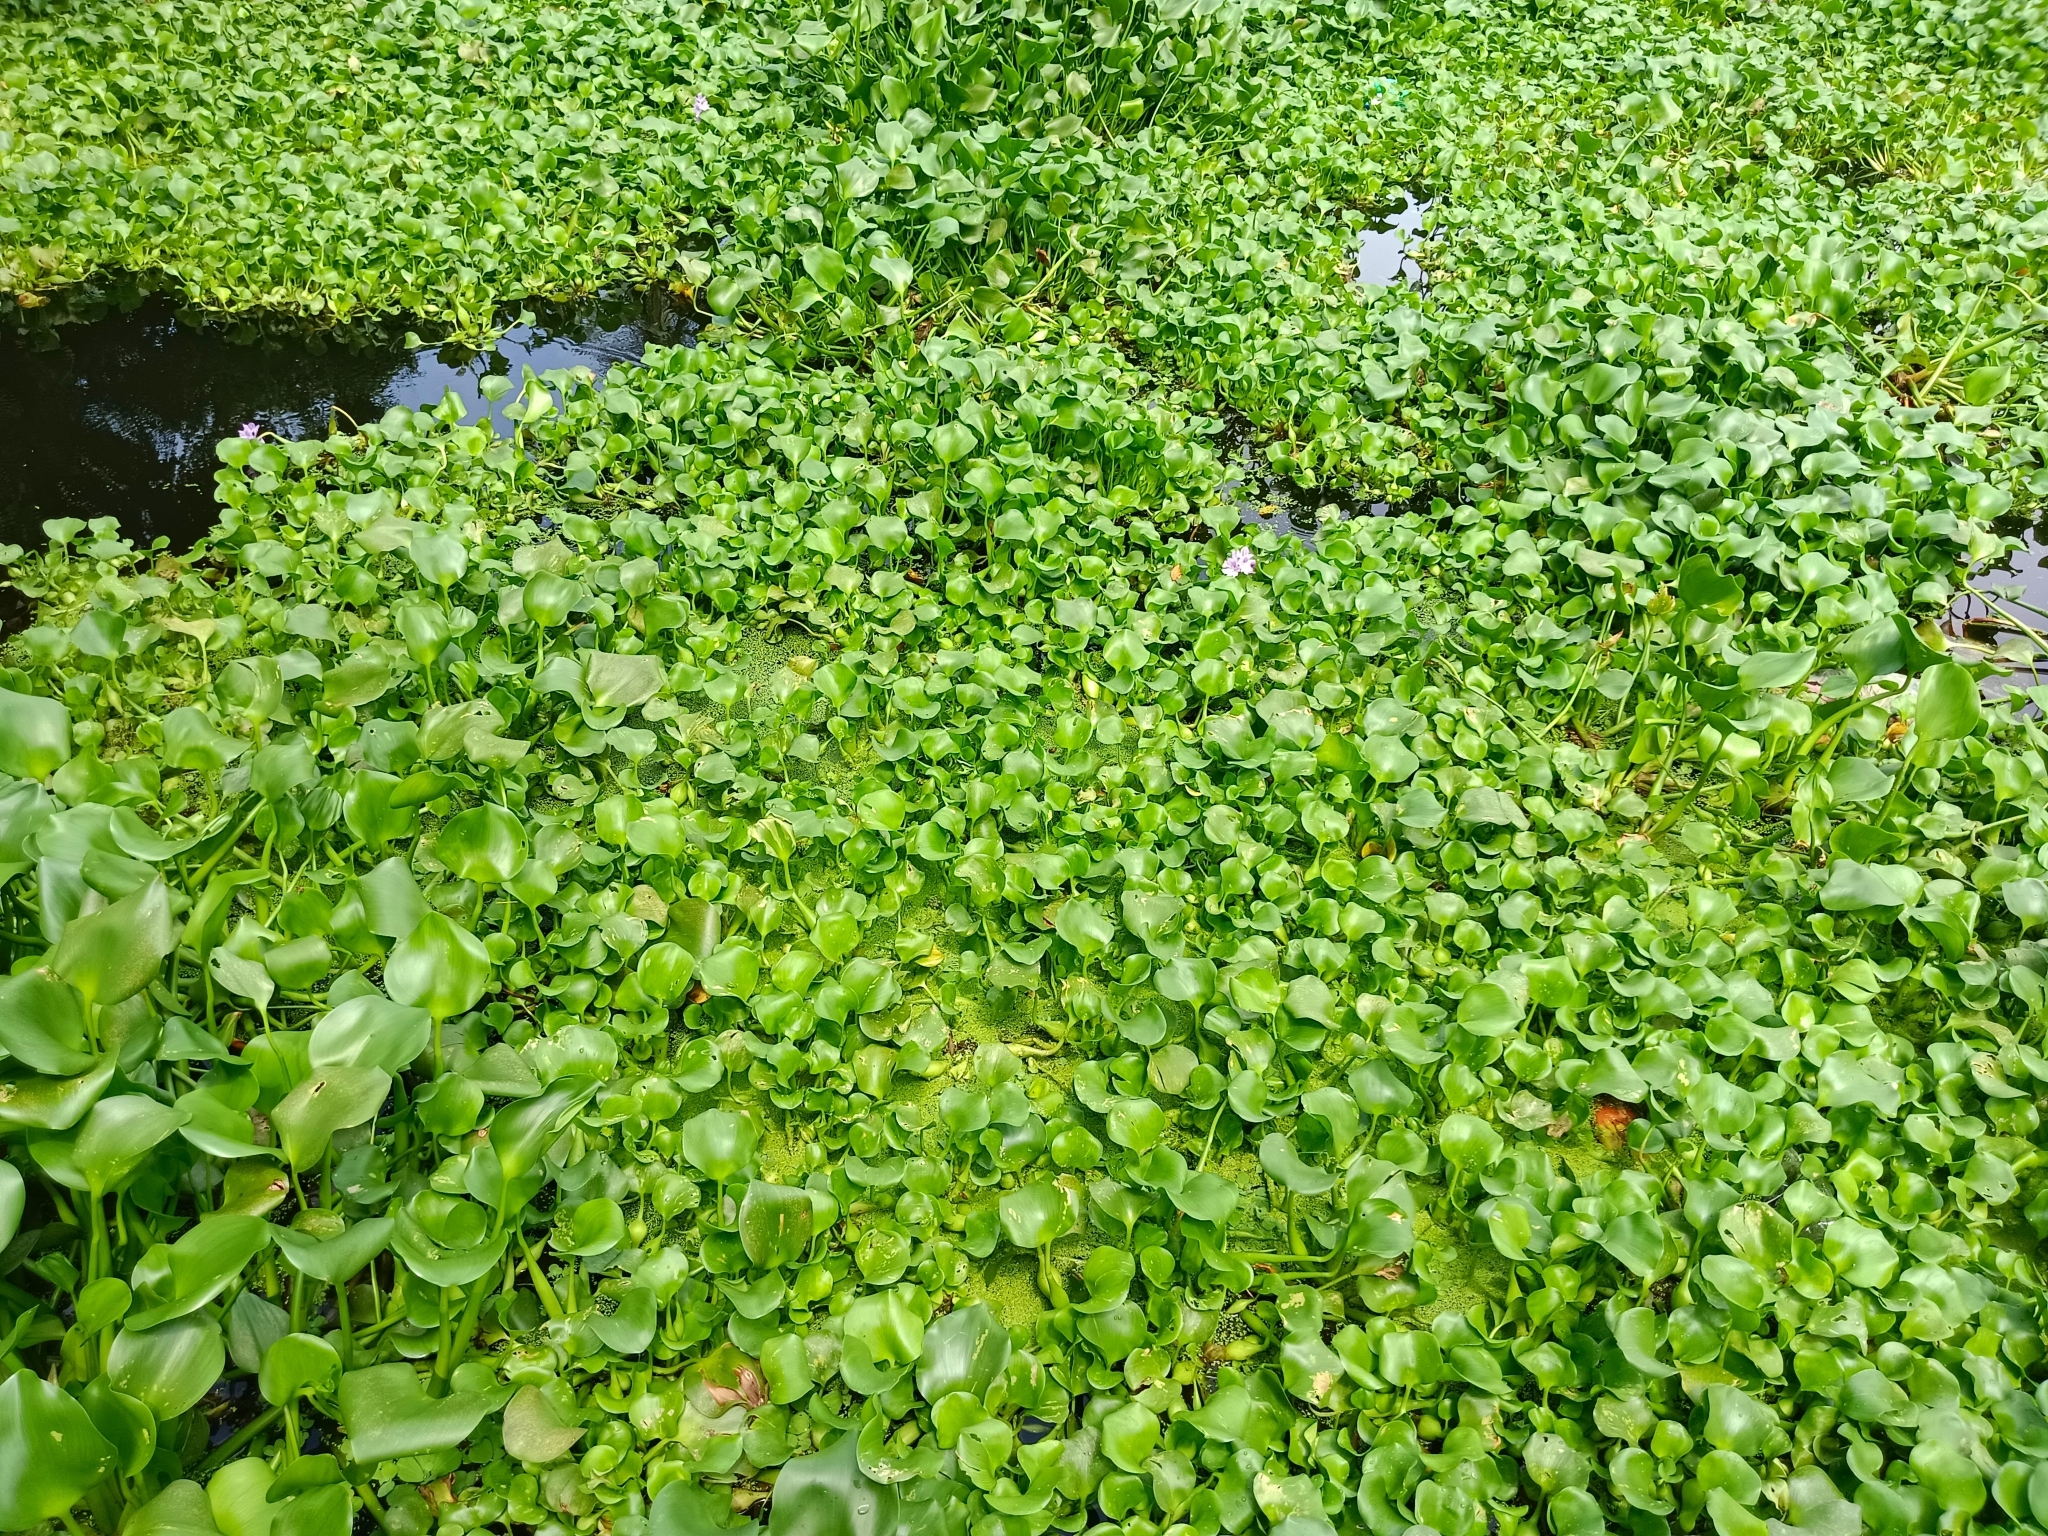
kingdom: Plantae
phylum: Tracheophyta
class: Liliopsida
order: Commelinales
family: Pontederiaceae
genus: Pontederia
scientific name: Pontederia crassipes
